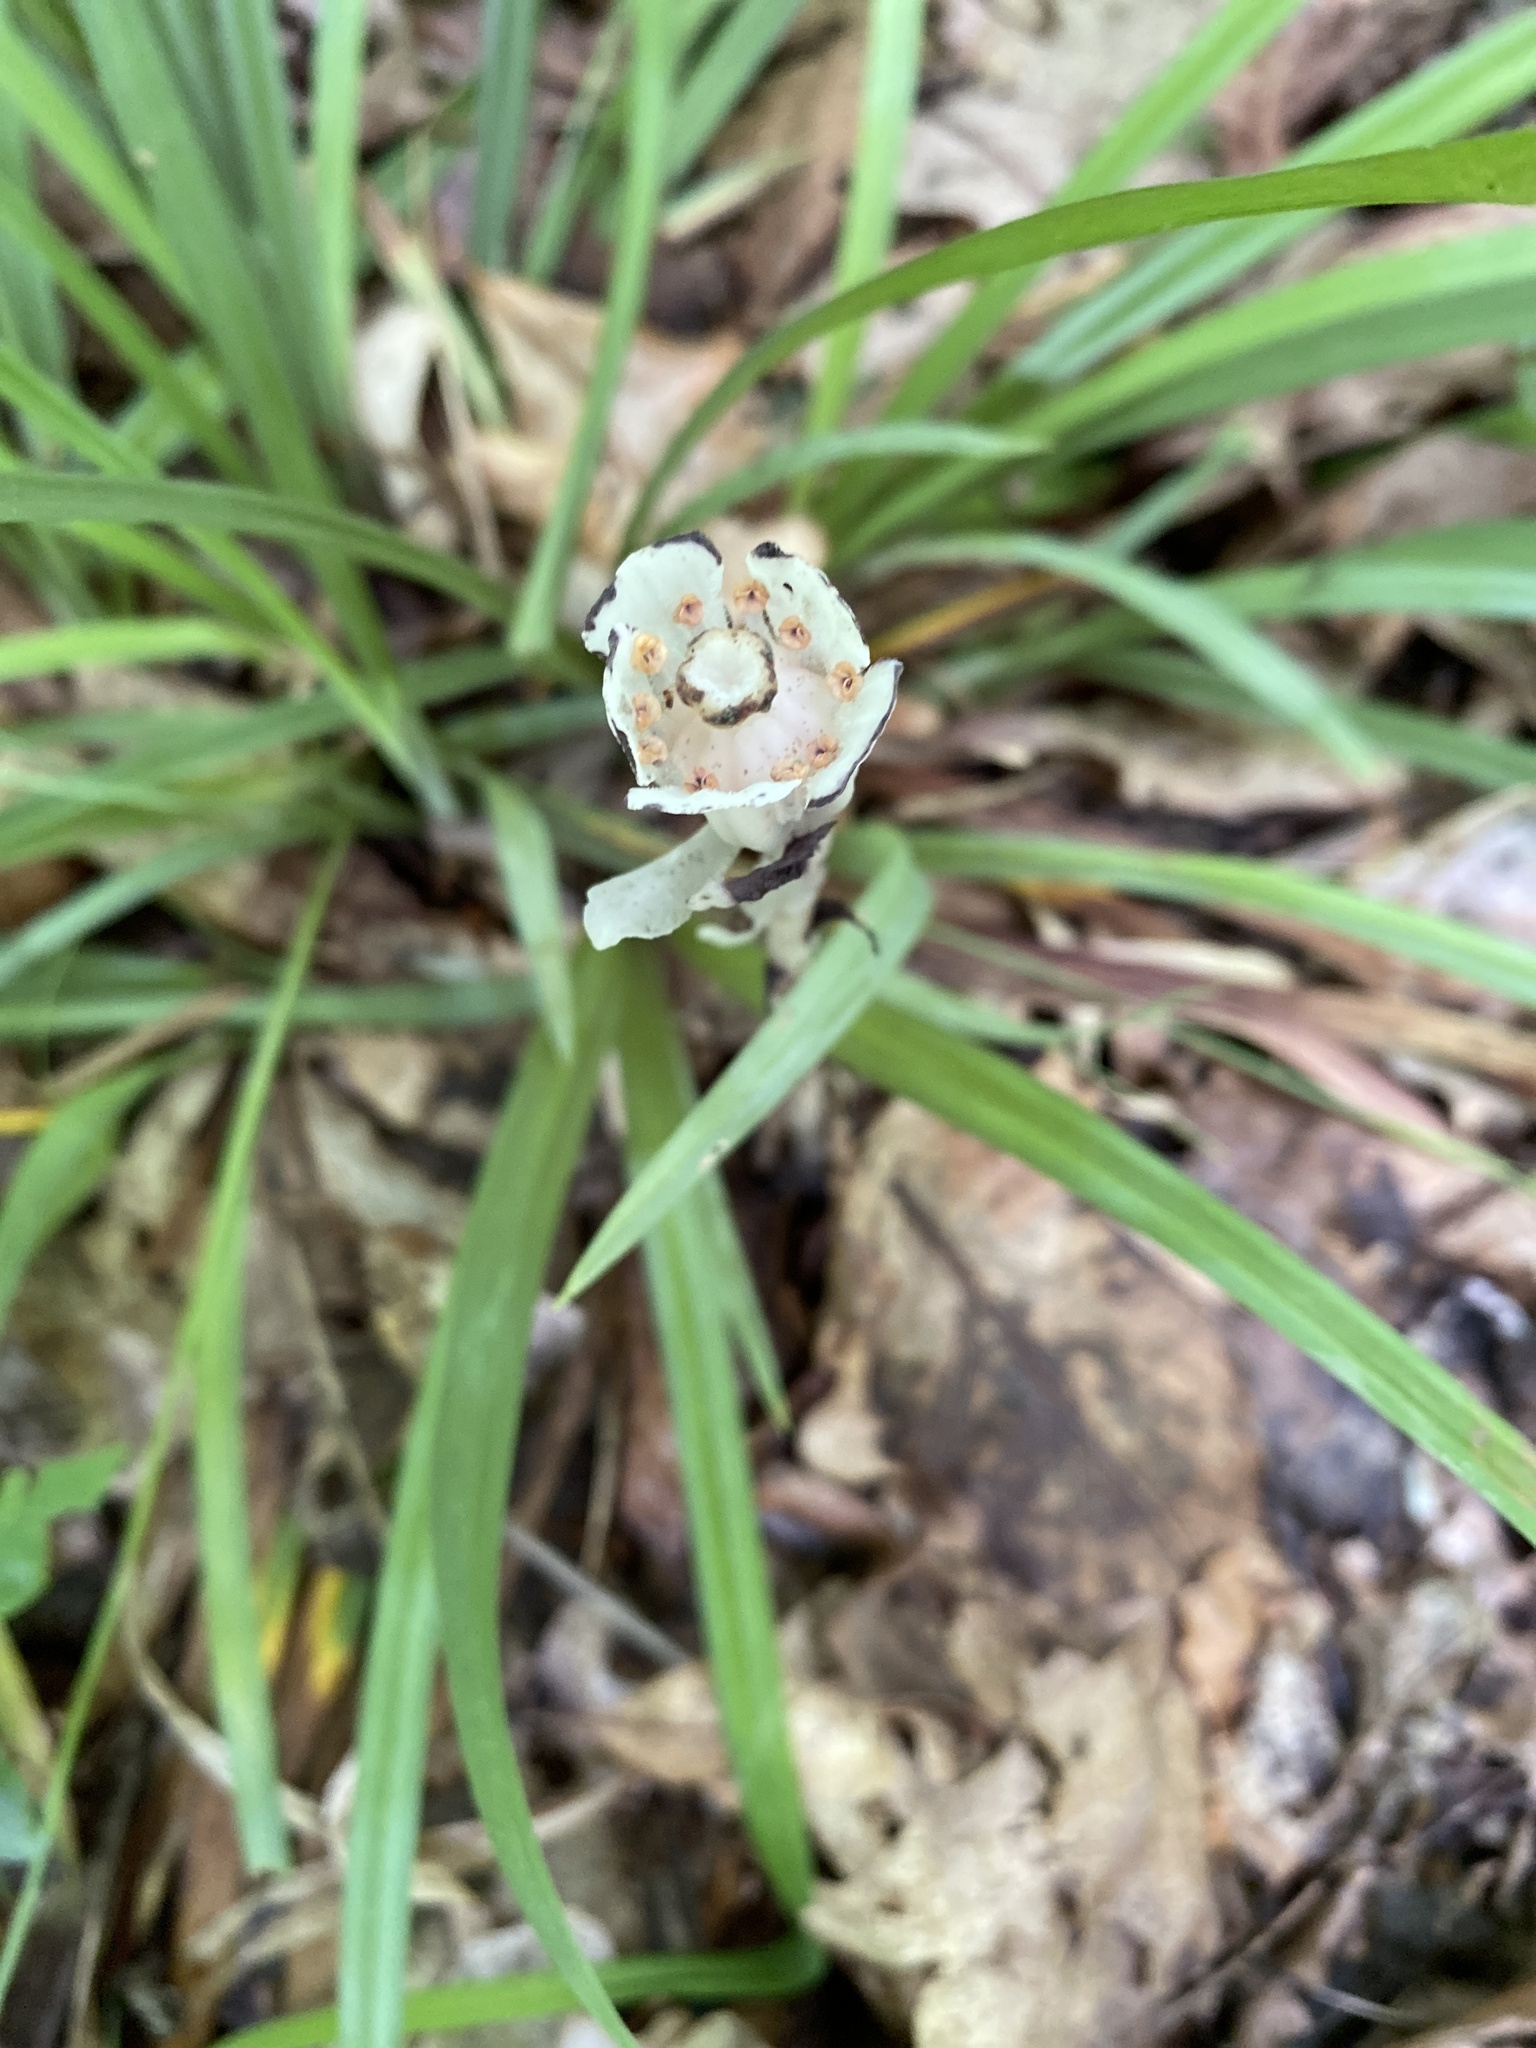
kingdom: Plantae
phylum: Tracheophyta
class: Magnoliopsida
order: Ericales
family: Ericaceae
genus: Monotropa
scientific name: Monotropa uniflora
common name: Convulsion root
